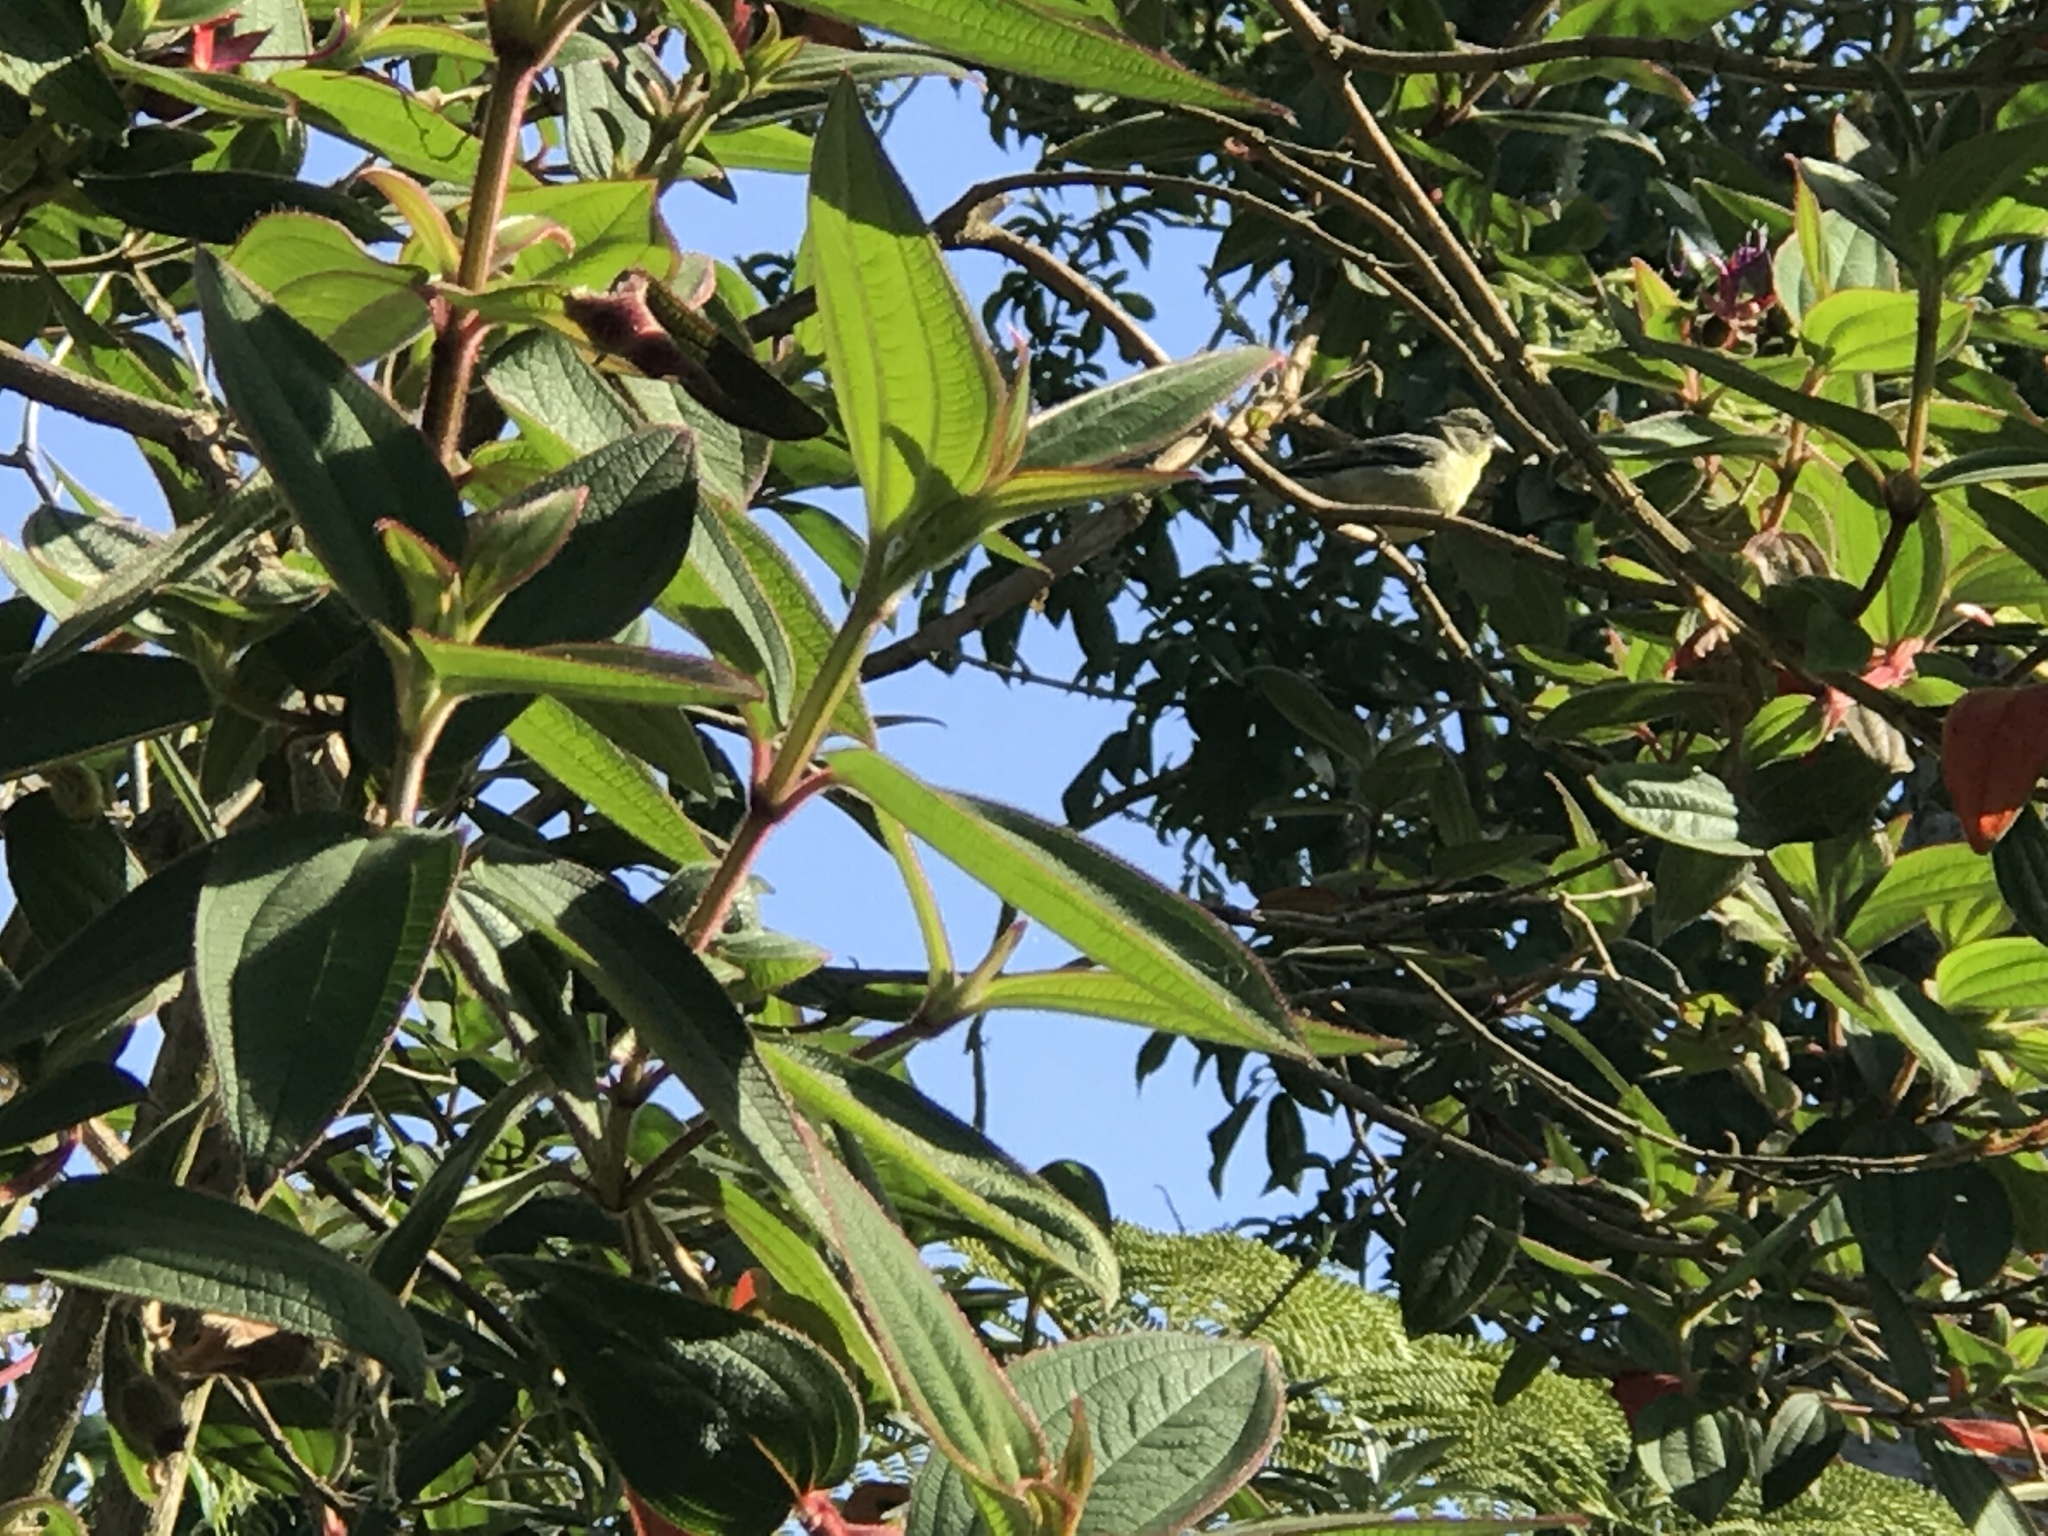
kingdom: Animalia
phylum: Chordata
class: Aves
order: Passeriformes
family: Fringillidae
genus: Spinus
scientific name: Spinus psaltria
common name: Lesser goldfinch
